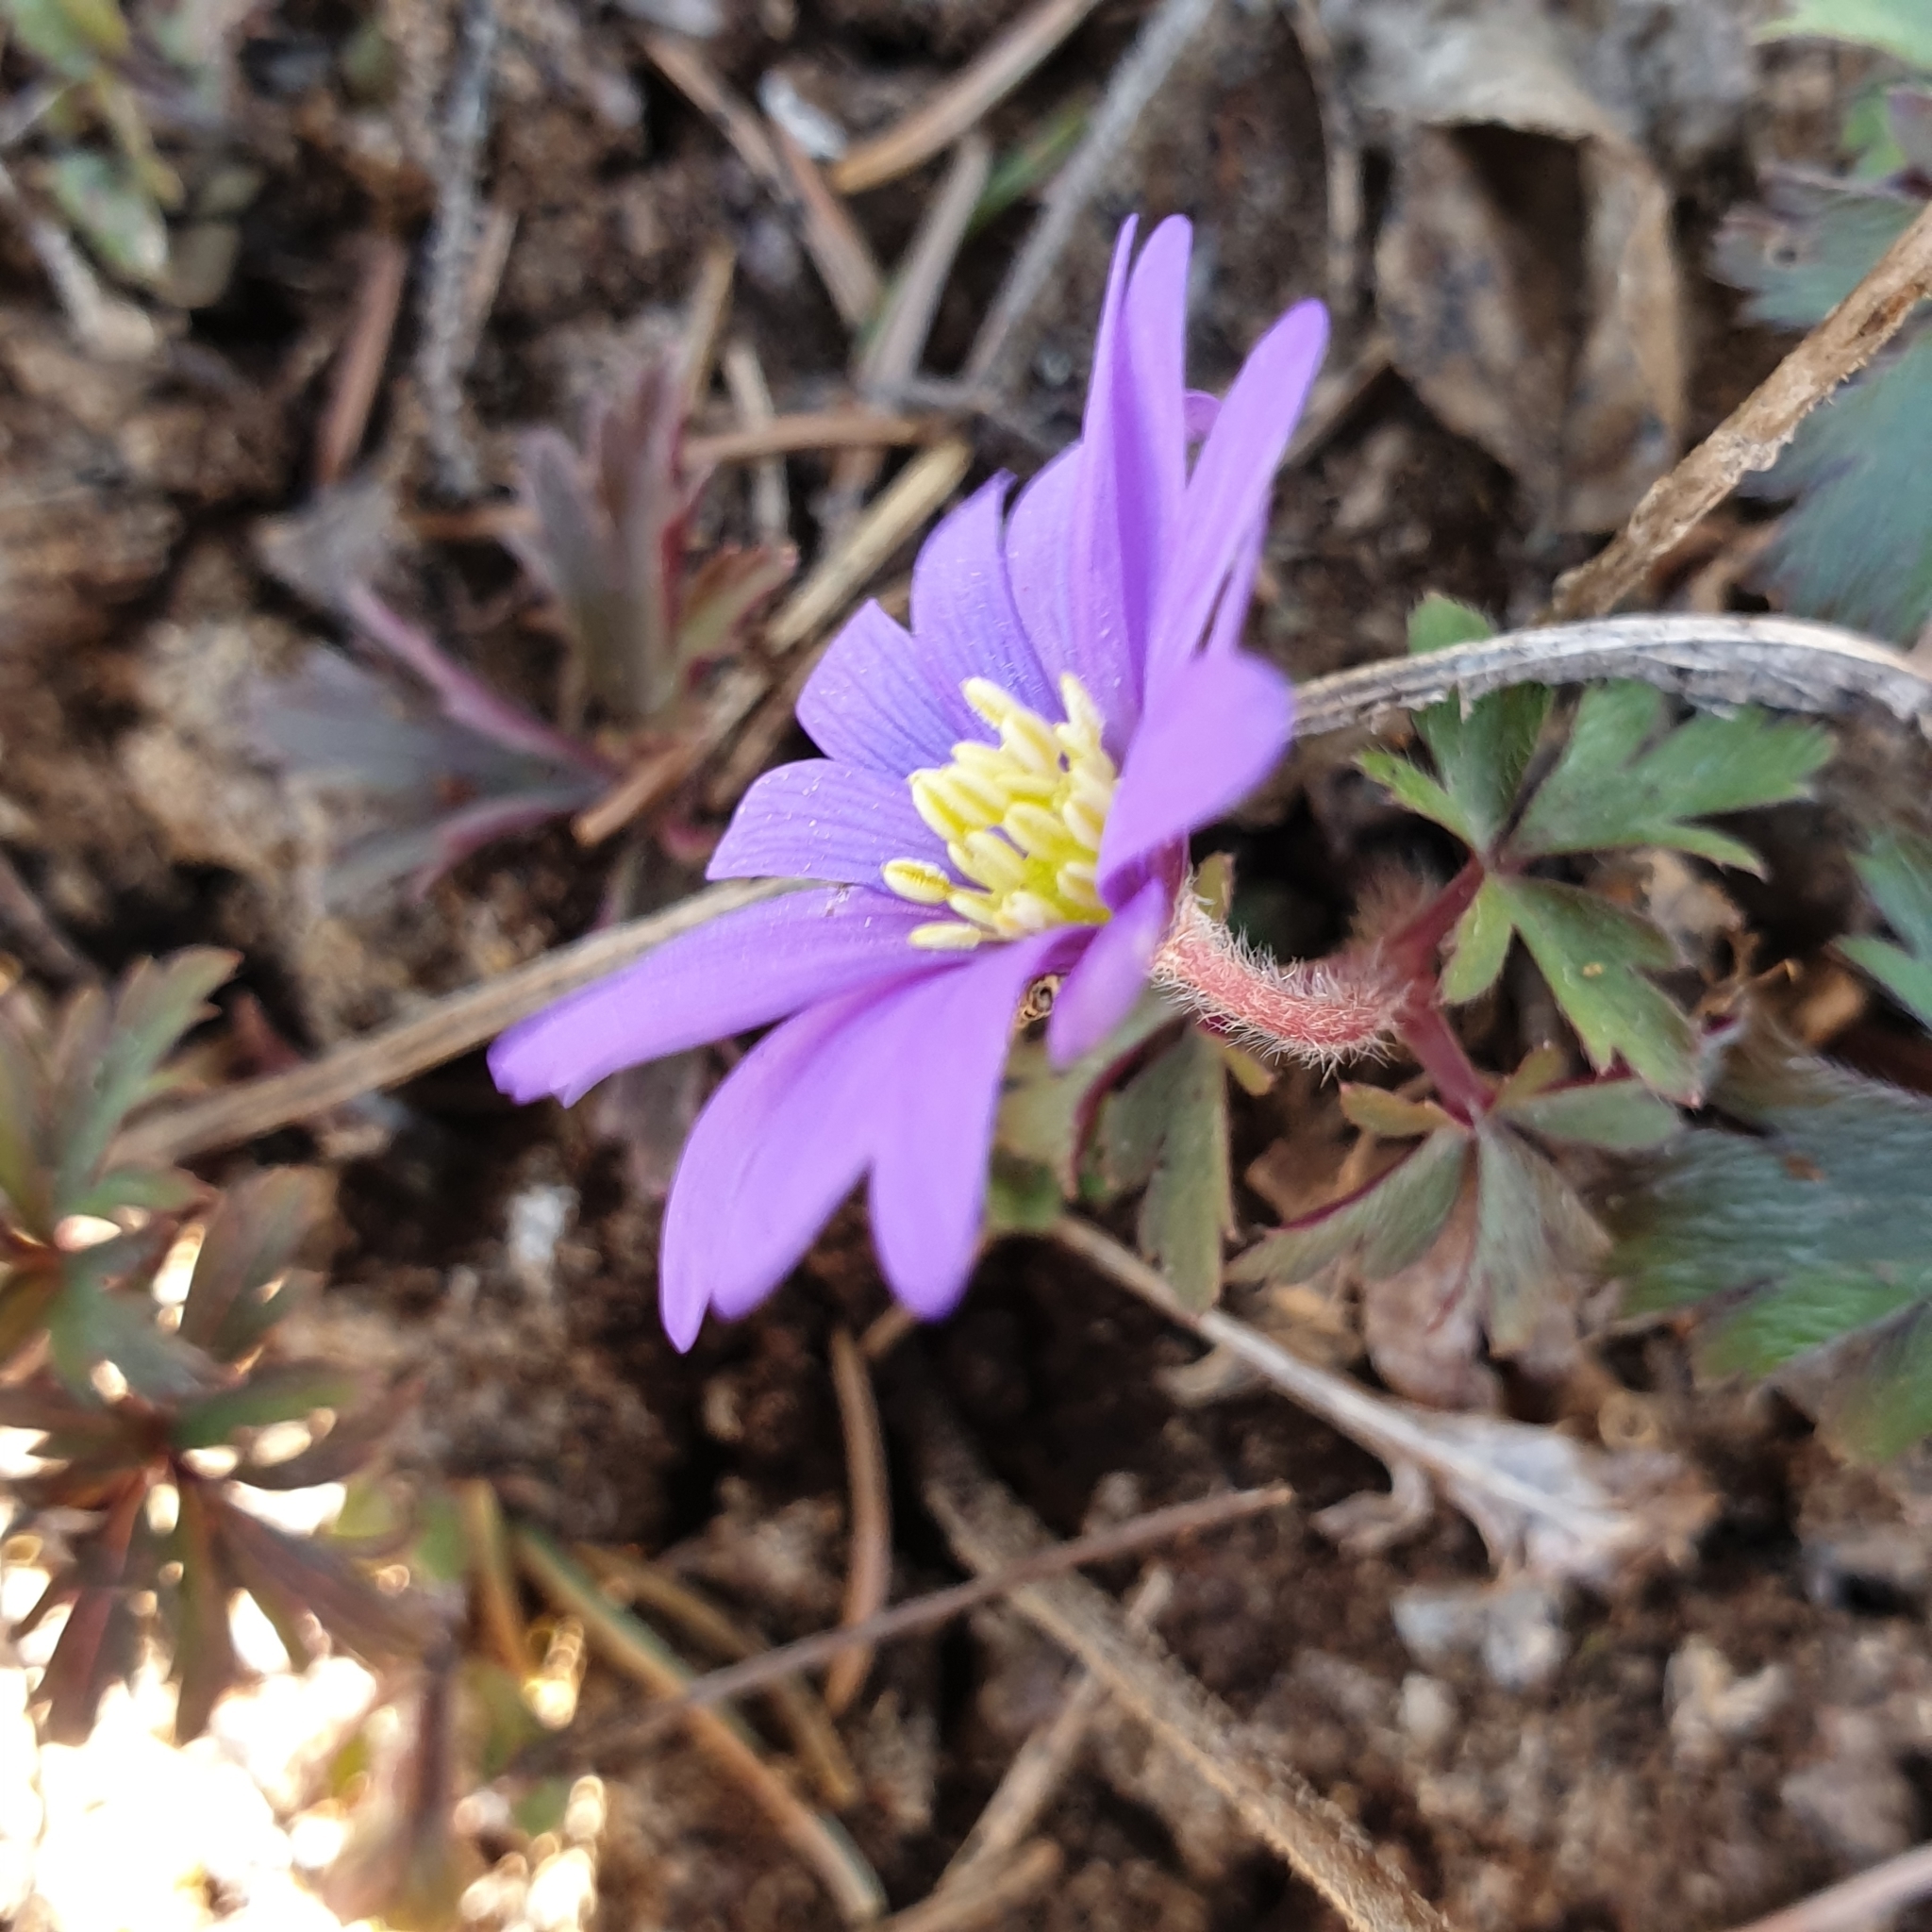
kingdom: Plantae
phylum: Tracheophyta
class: Magnoliopsida
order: Ranunculales
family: Ranunculaceae
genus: Anemone
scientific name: Anemone blanda
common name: Balkan anemone
